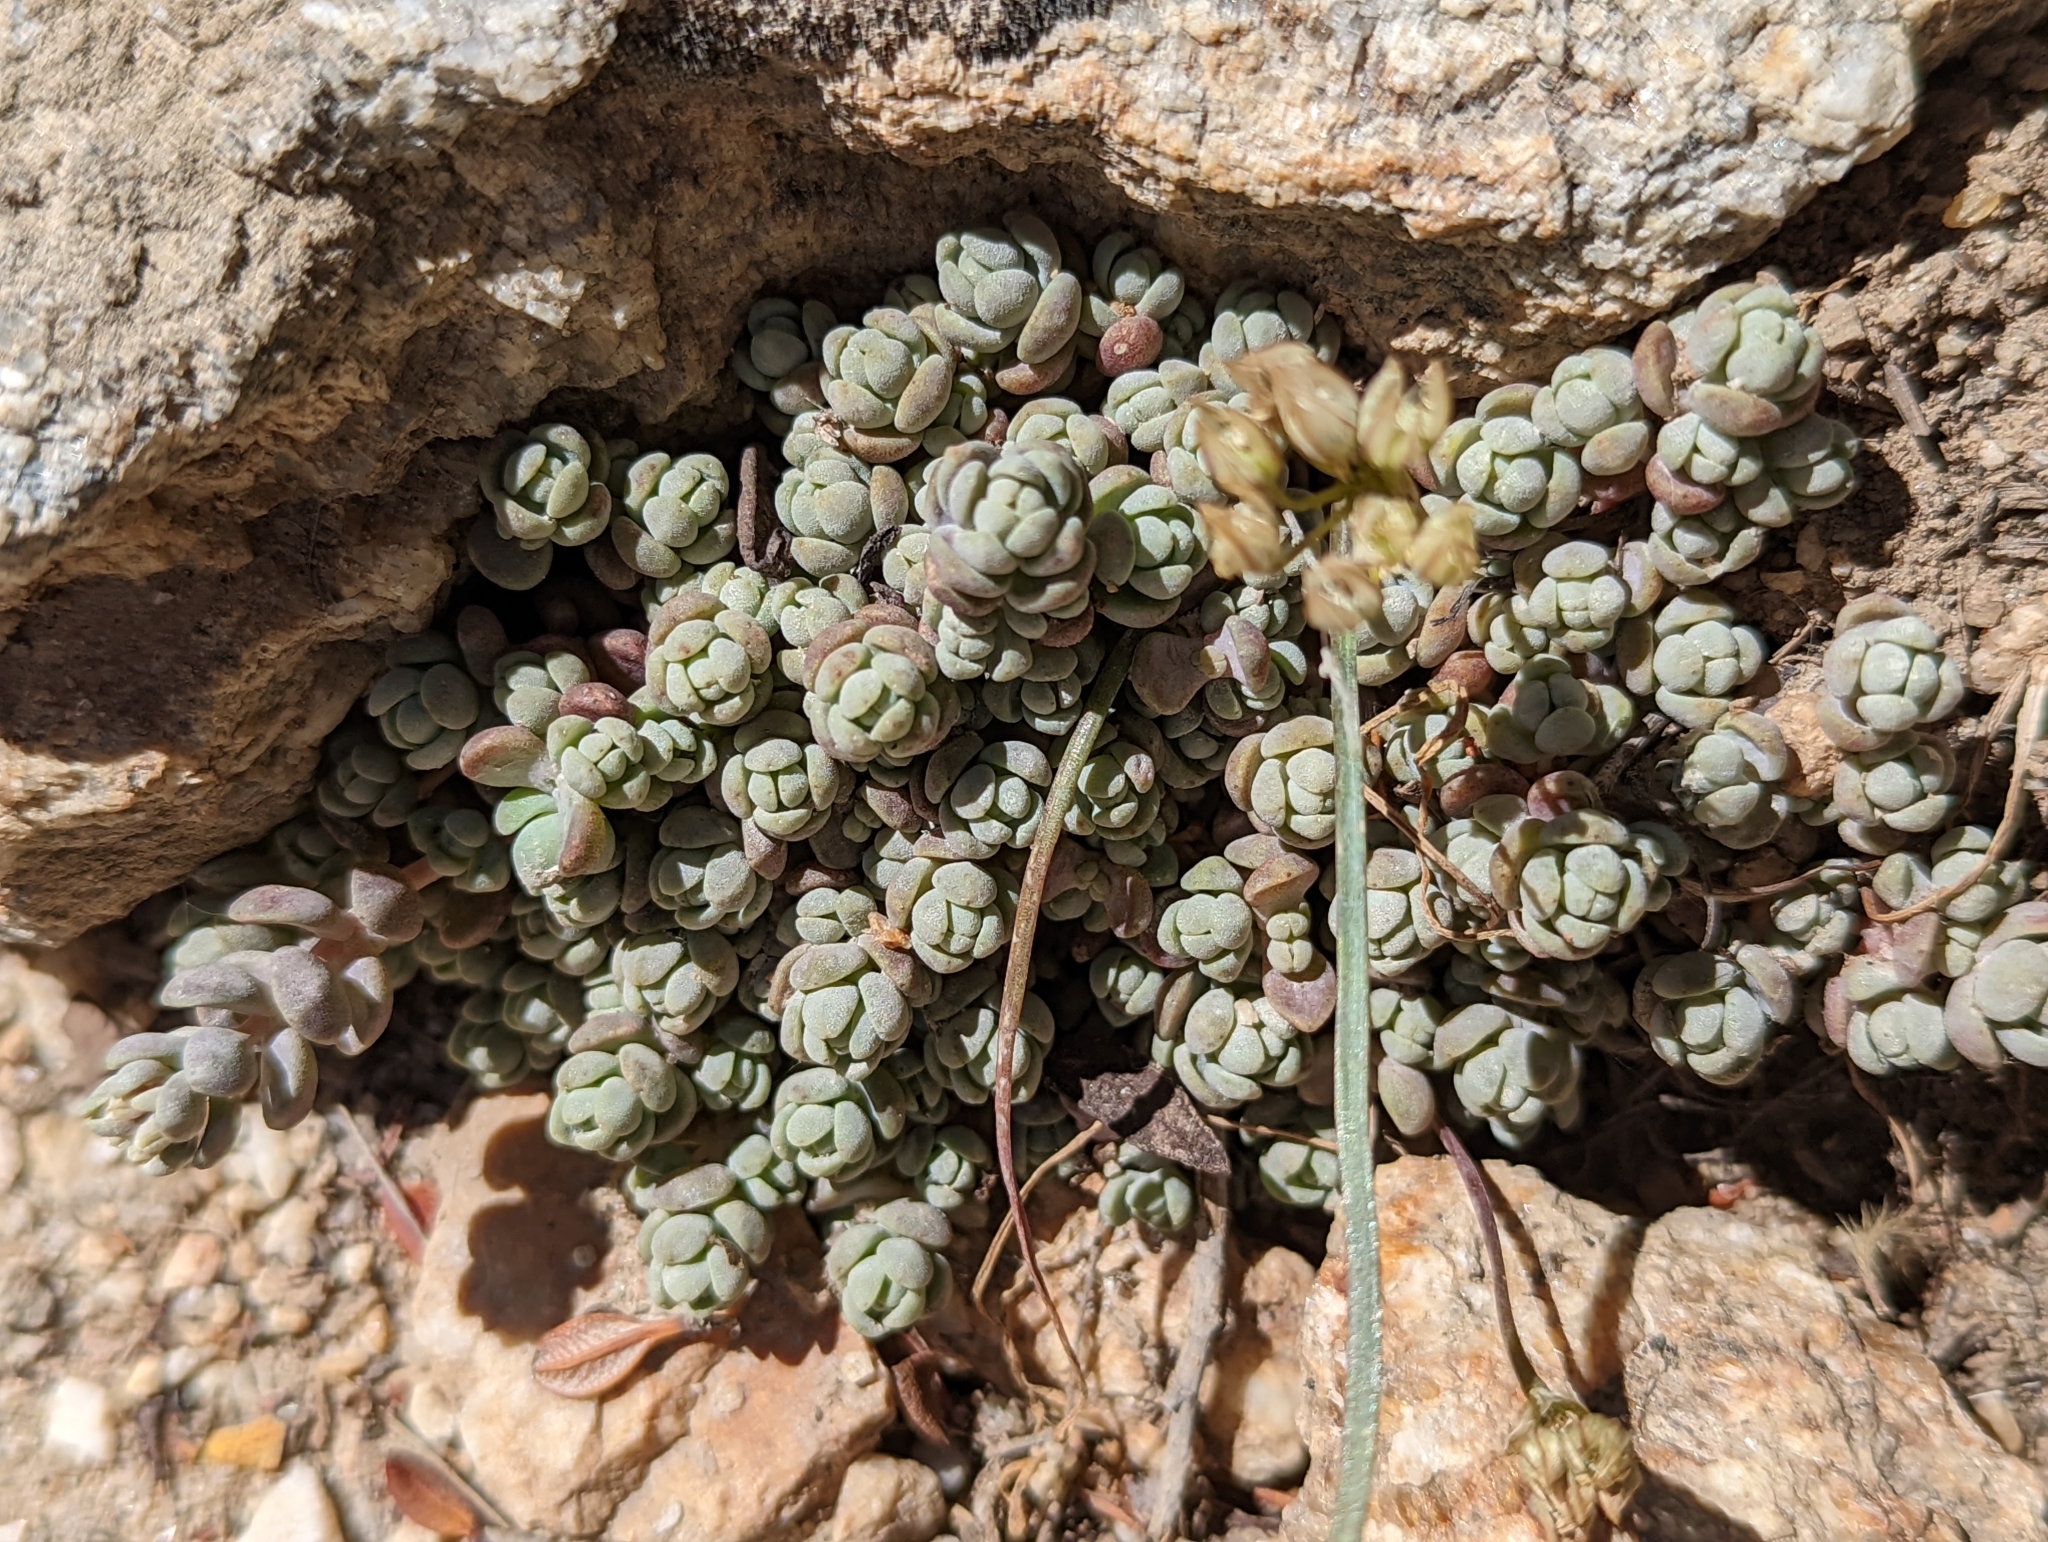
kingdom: Plantae
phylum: Tracheophyta
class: Magnoliopsida
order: Saxifragales
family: Crassulaceae
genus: Sedum
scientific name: Sedum debile
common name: Weak-stem stonecrop
